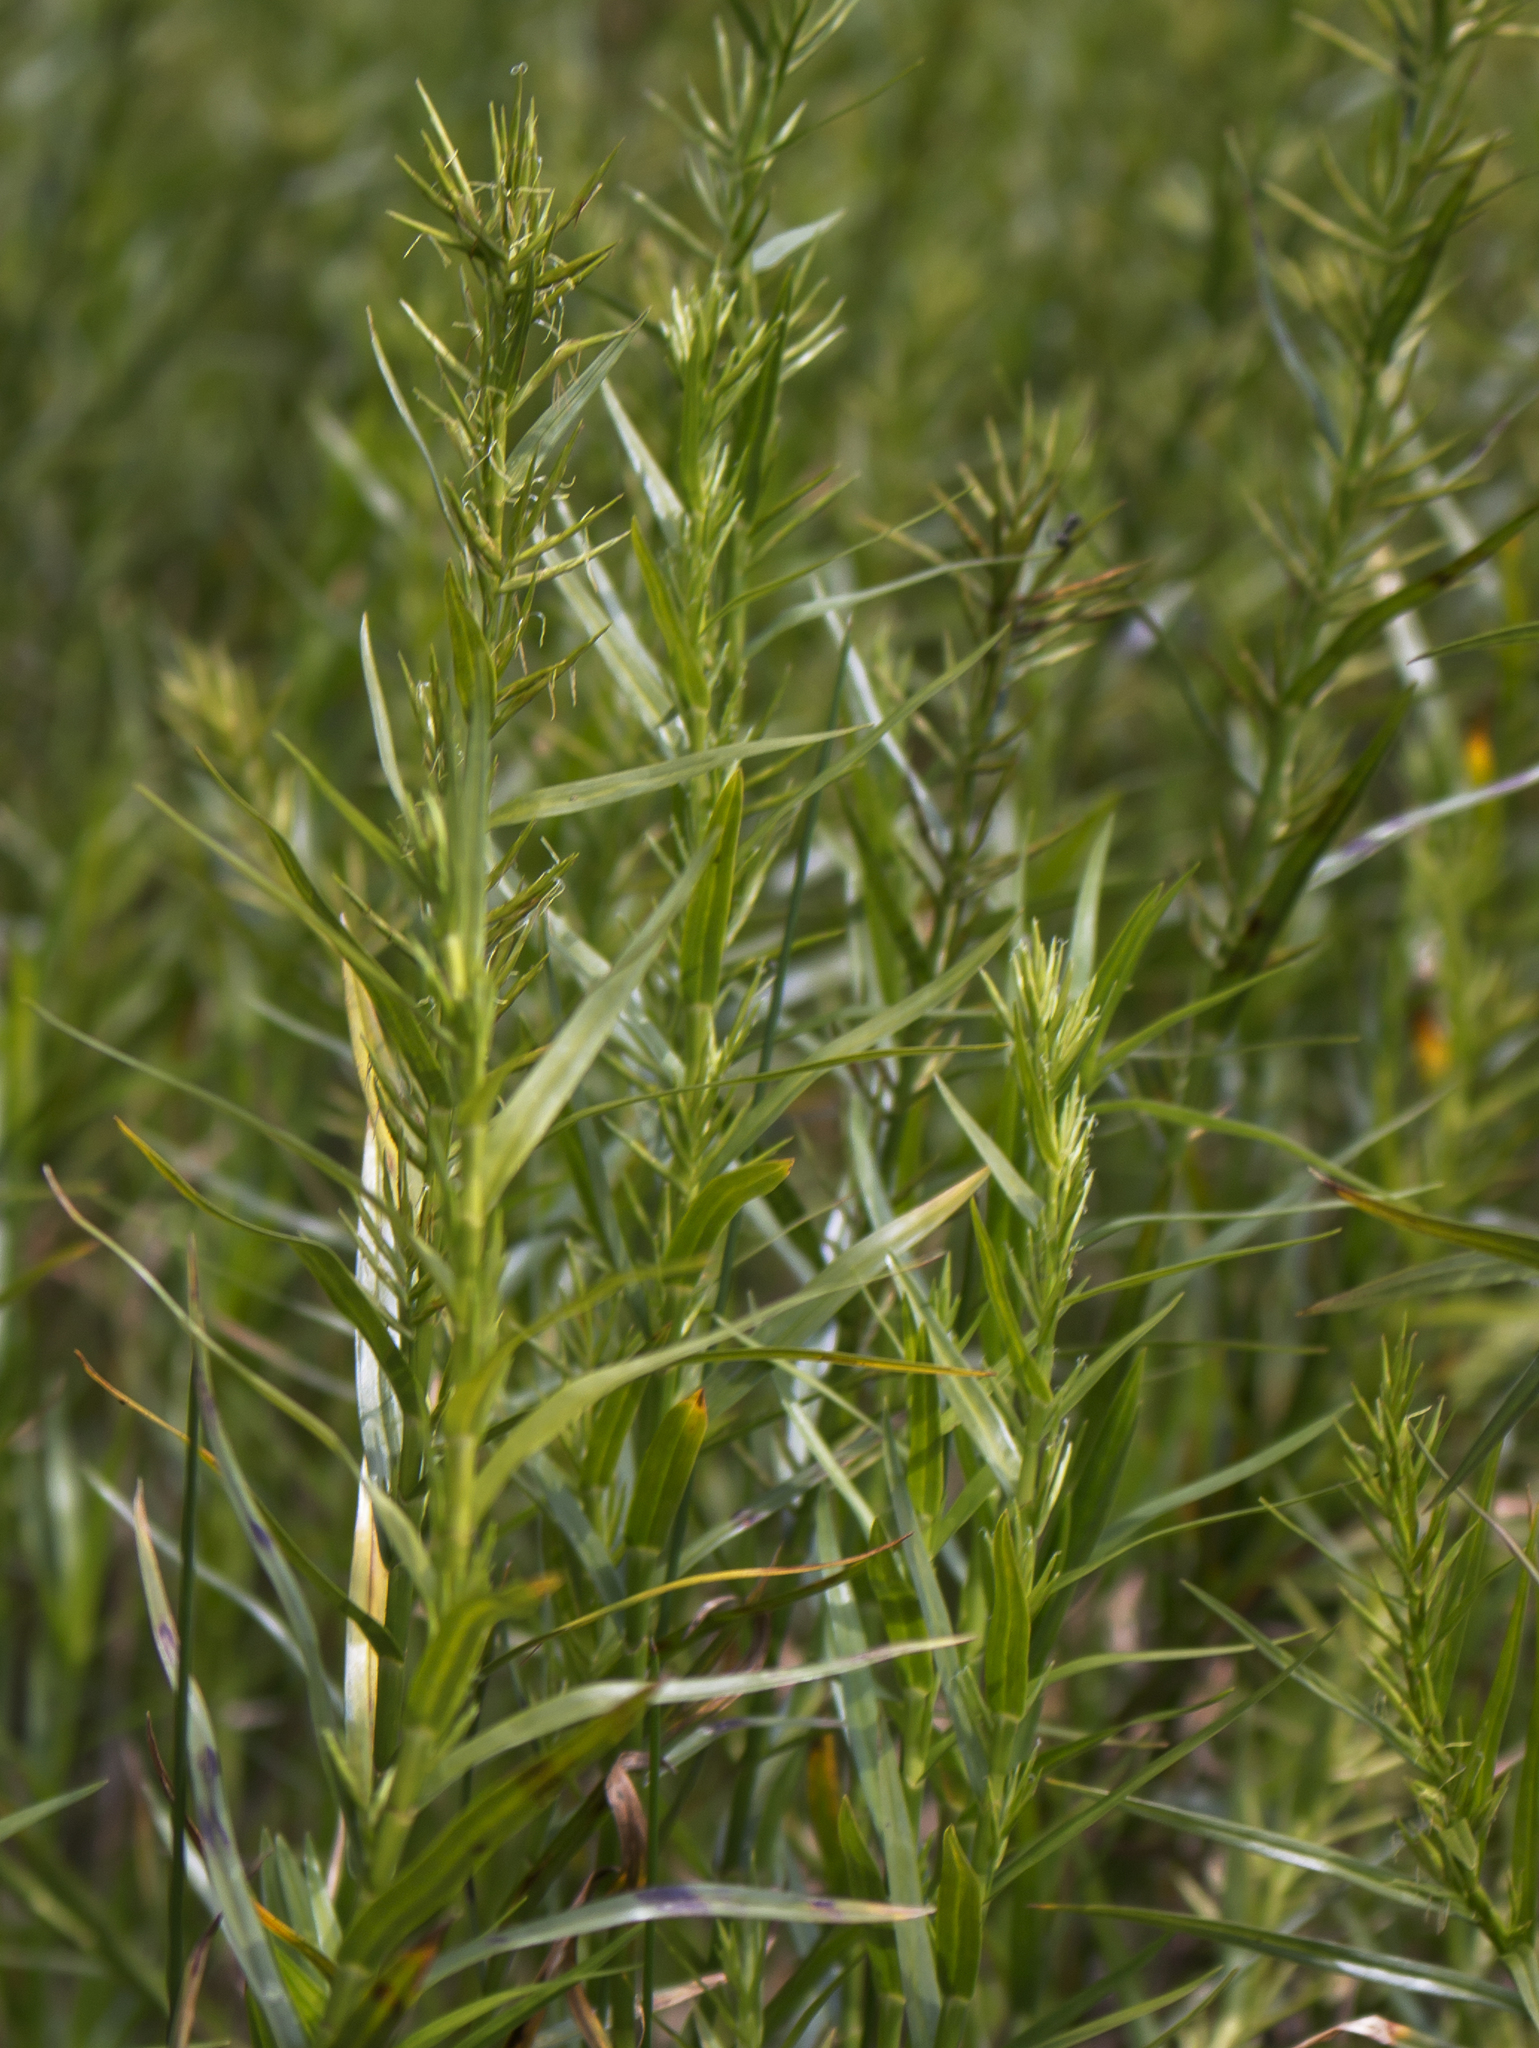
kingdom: Plantae
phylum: Tracheophyta
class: Liliopsida
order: Poales
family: Cyperaceae
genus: Dulichium
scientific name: Dulichium arundinaceum
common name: Three-way sedge
